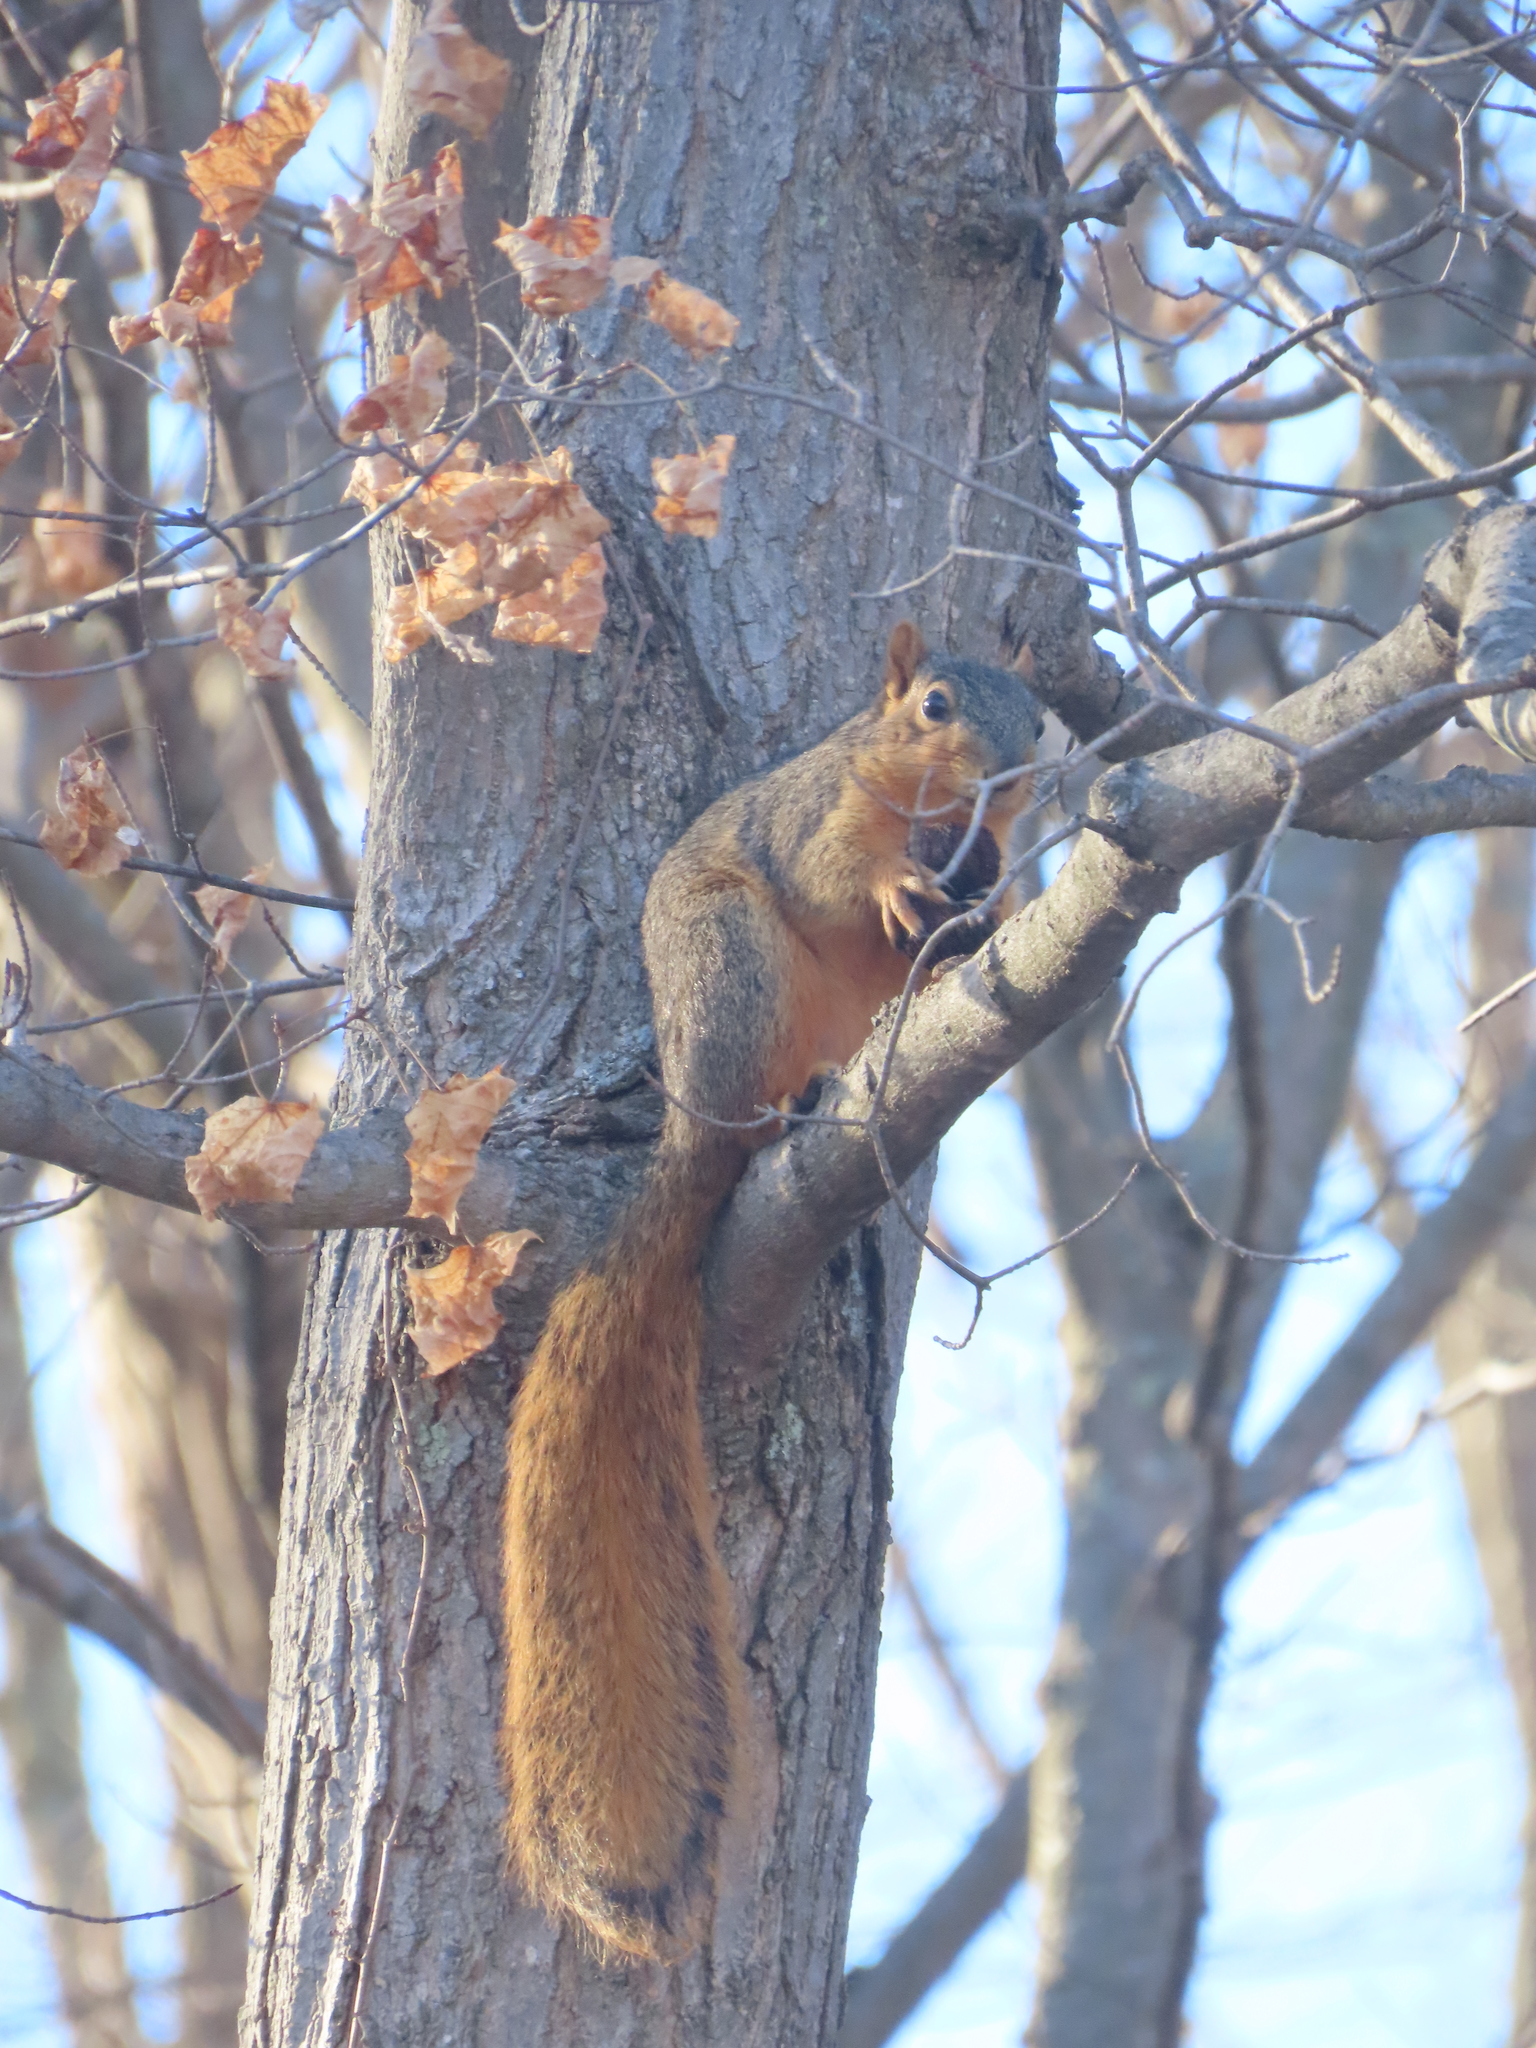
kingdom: Animalia
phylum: Chordata
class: Mammalia
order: Rodentia
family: Sciuridae
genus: Sciurus
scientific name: Sciurus niger
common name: Fox squirrel
